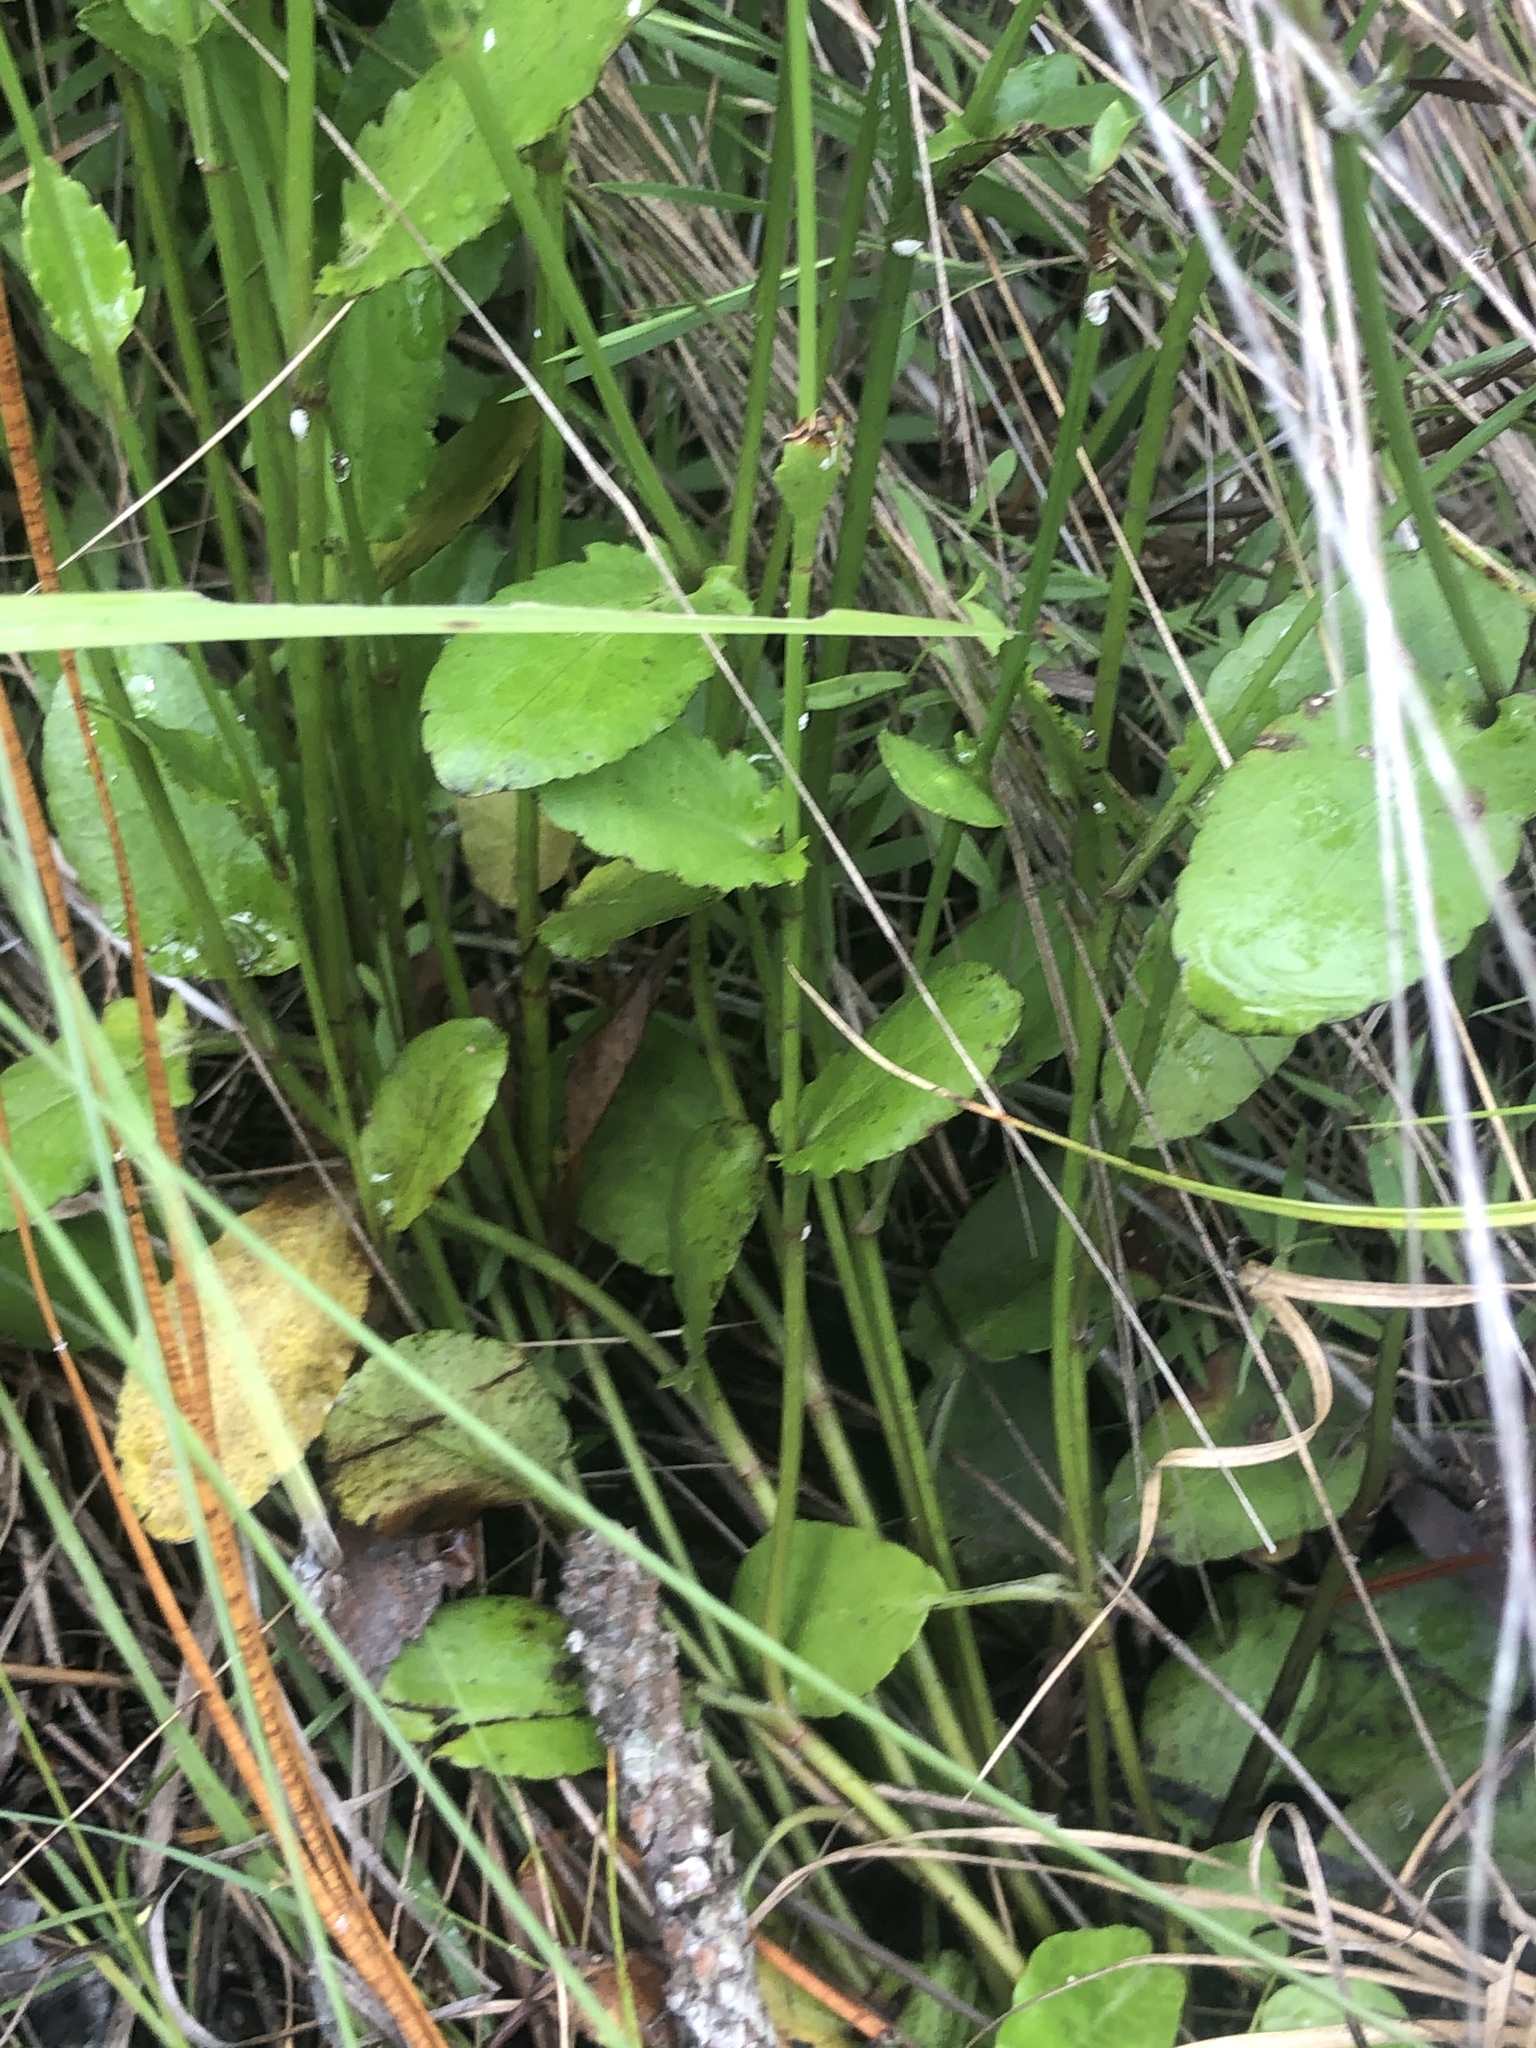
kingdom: Plantae
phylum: Tracheophyta
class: Magnoliopsida
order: Apiales
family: Apiaceae
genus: Eryngium
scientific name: Eryngium integrifolium
